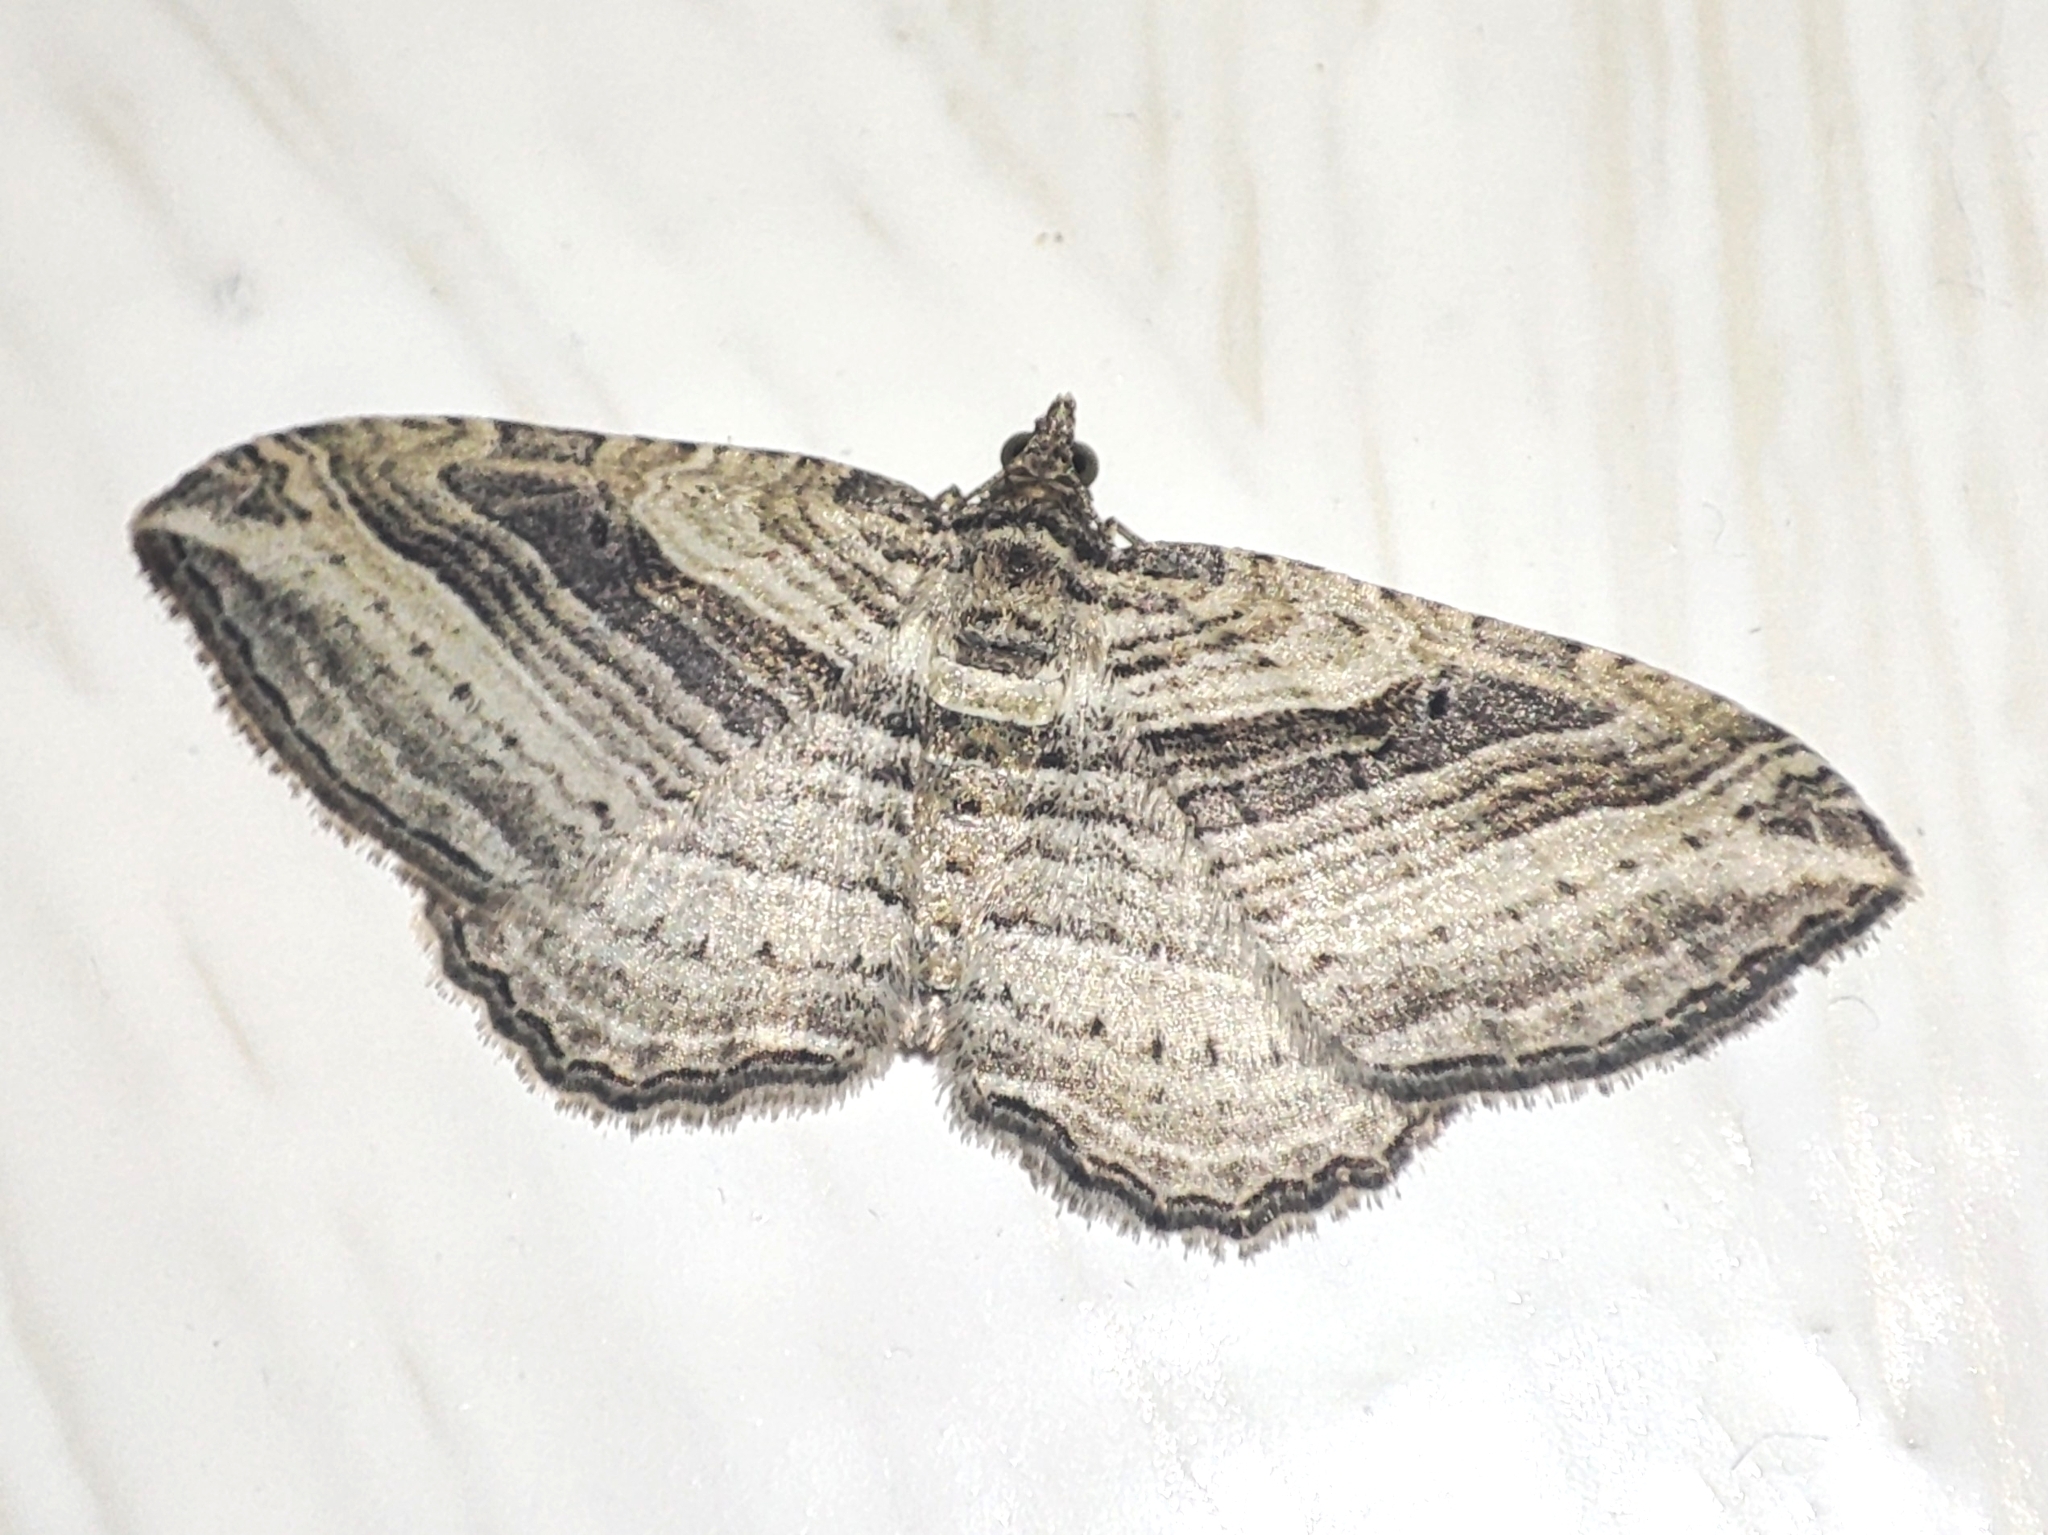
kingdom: Animalia
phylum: Arthropoda
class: Insecta
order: Lepidoptera
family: Geometridae
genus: Costaconvexa
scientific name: Costaconvexa polygrammata
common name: Many-lined
